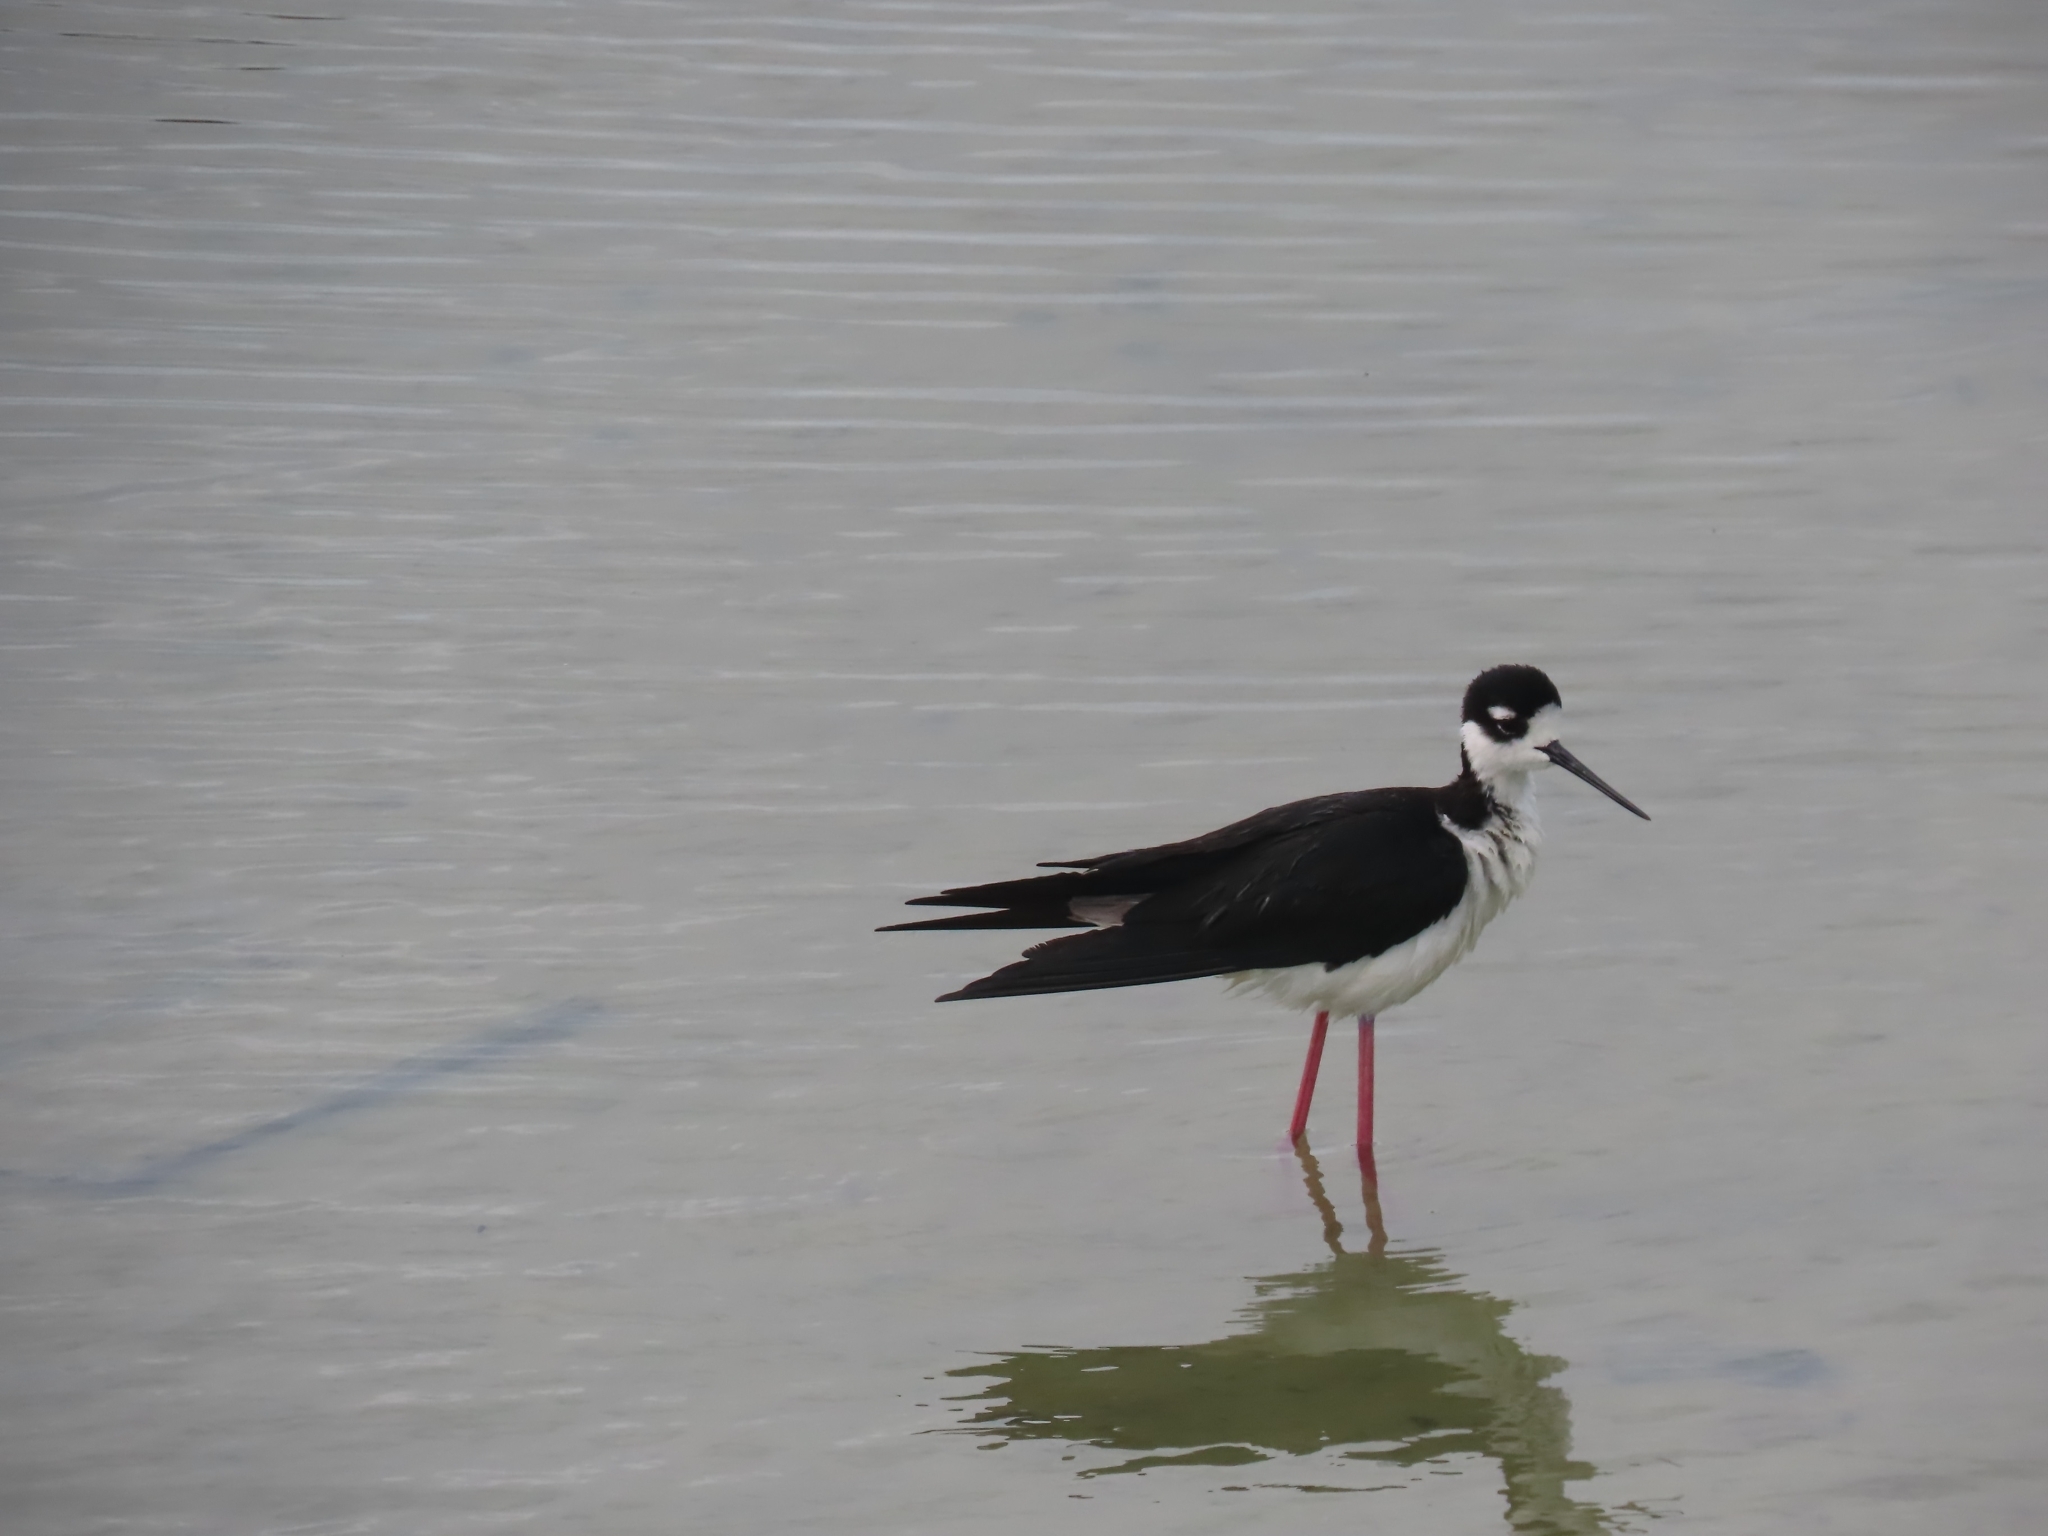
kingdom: Animalia
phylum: Chordata
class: Aves
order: Charadriiformes
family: Recurvirostridae
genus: Himantopus
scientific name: Himantopus mexicanus
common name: Black-necked stilt
